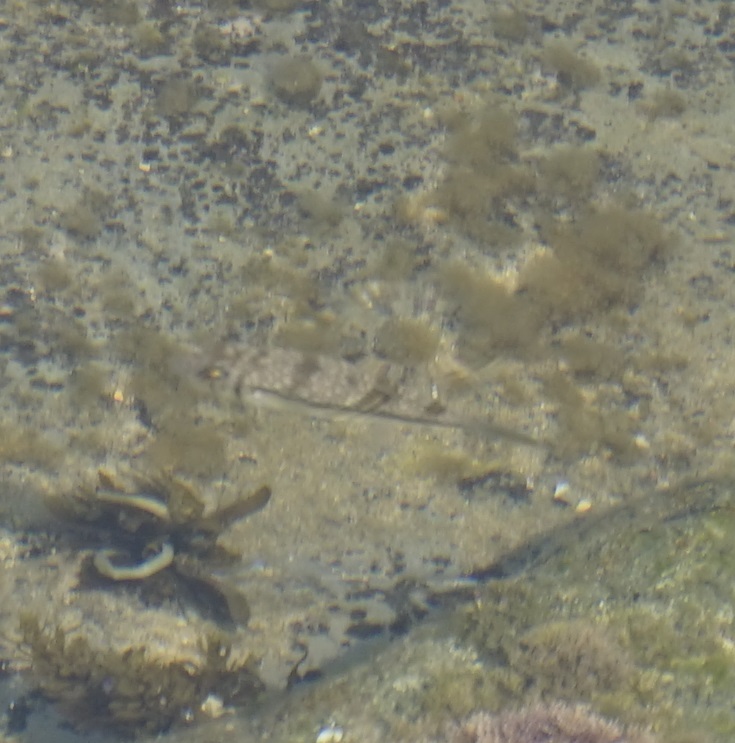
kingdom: Animalia
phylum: Chordata
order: Tetraodontiformes
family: Tetraodontidae
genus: Torquigener
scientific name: Torquigener pleurogramma
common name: Banded toadfish
